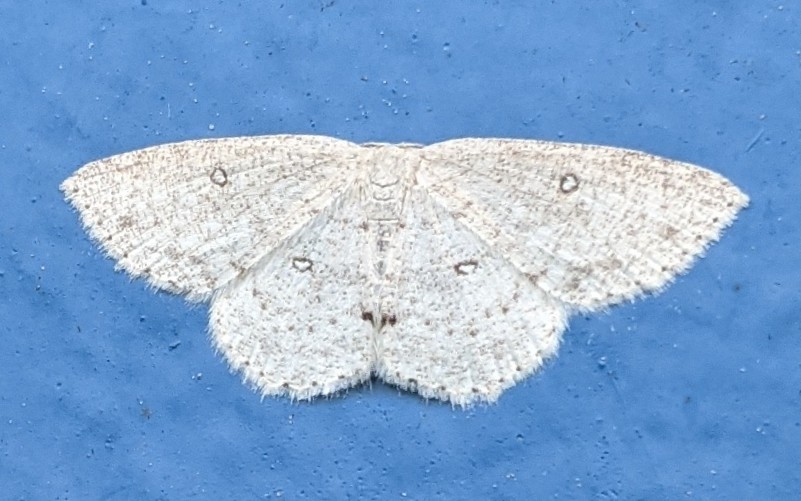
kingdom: Animalia
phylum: Arthropoda
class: Insecta
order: Lepidoptera
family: Geometridae
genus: Cyclophora
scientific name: Cyclophora pendulinaria
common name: Sweet fern geometer
